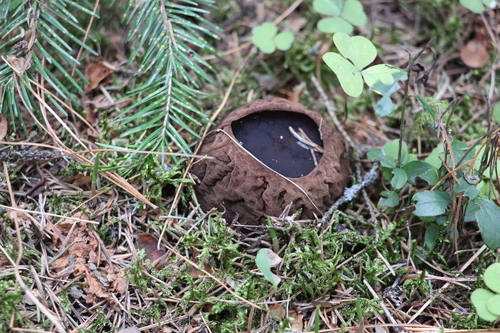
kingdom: Fungi
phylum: Ascomycota
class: Pezizomycetes
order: Pezizales
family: Sarcosomataceae
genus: Sarcosoma
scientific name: Sarcosoma globosum
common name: Charred-pancake cup
